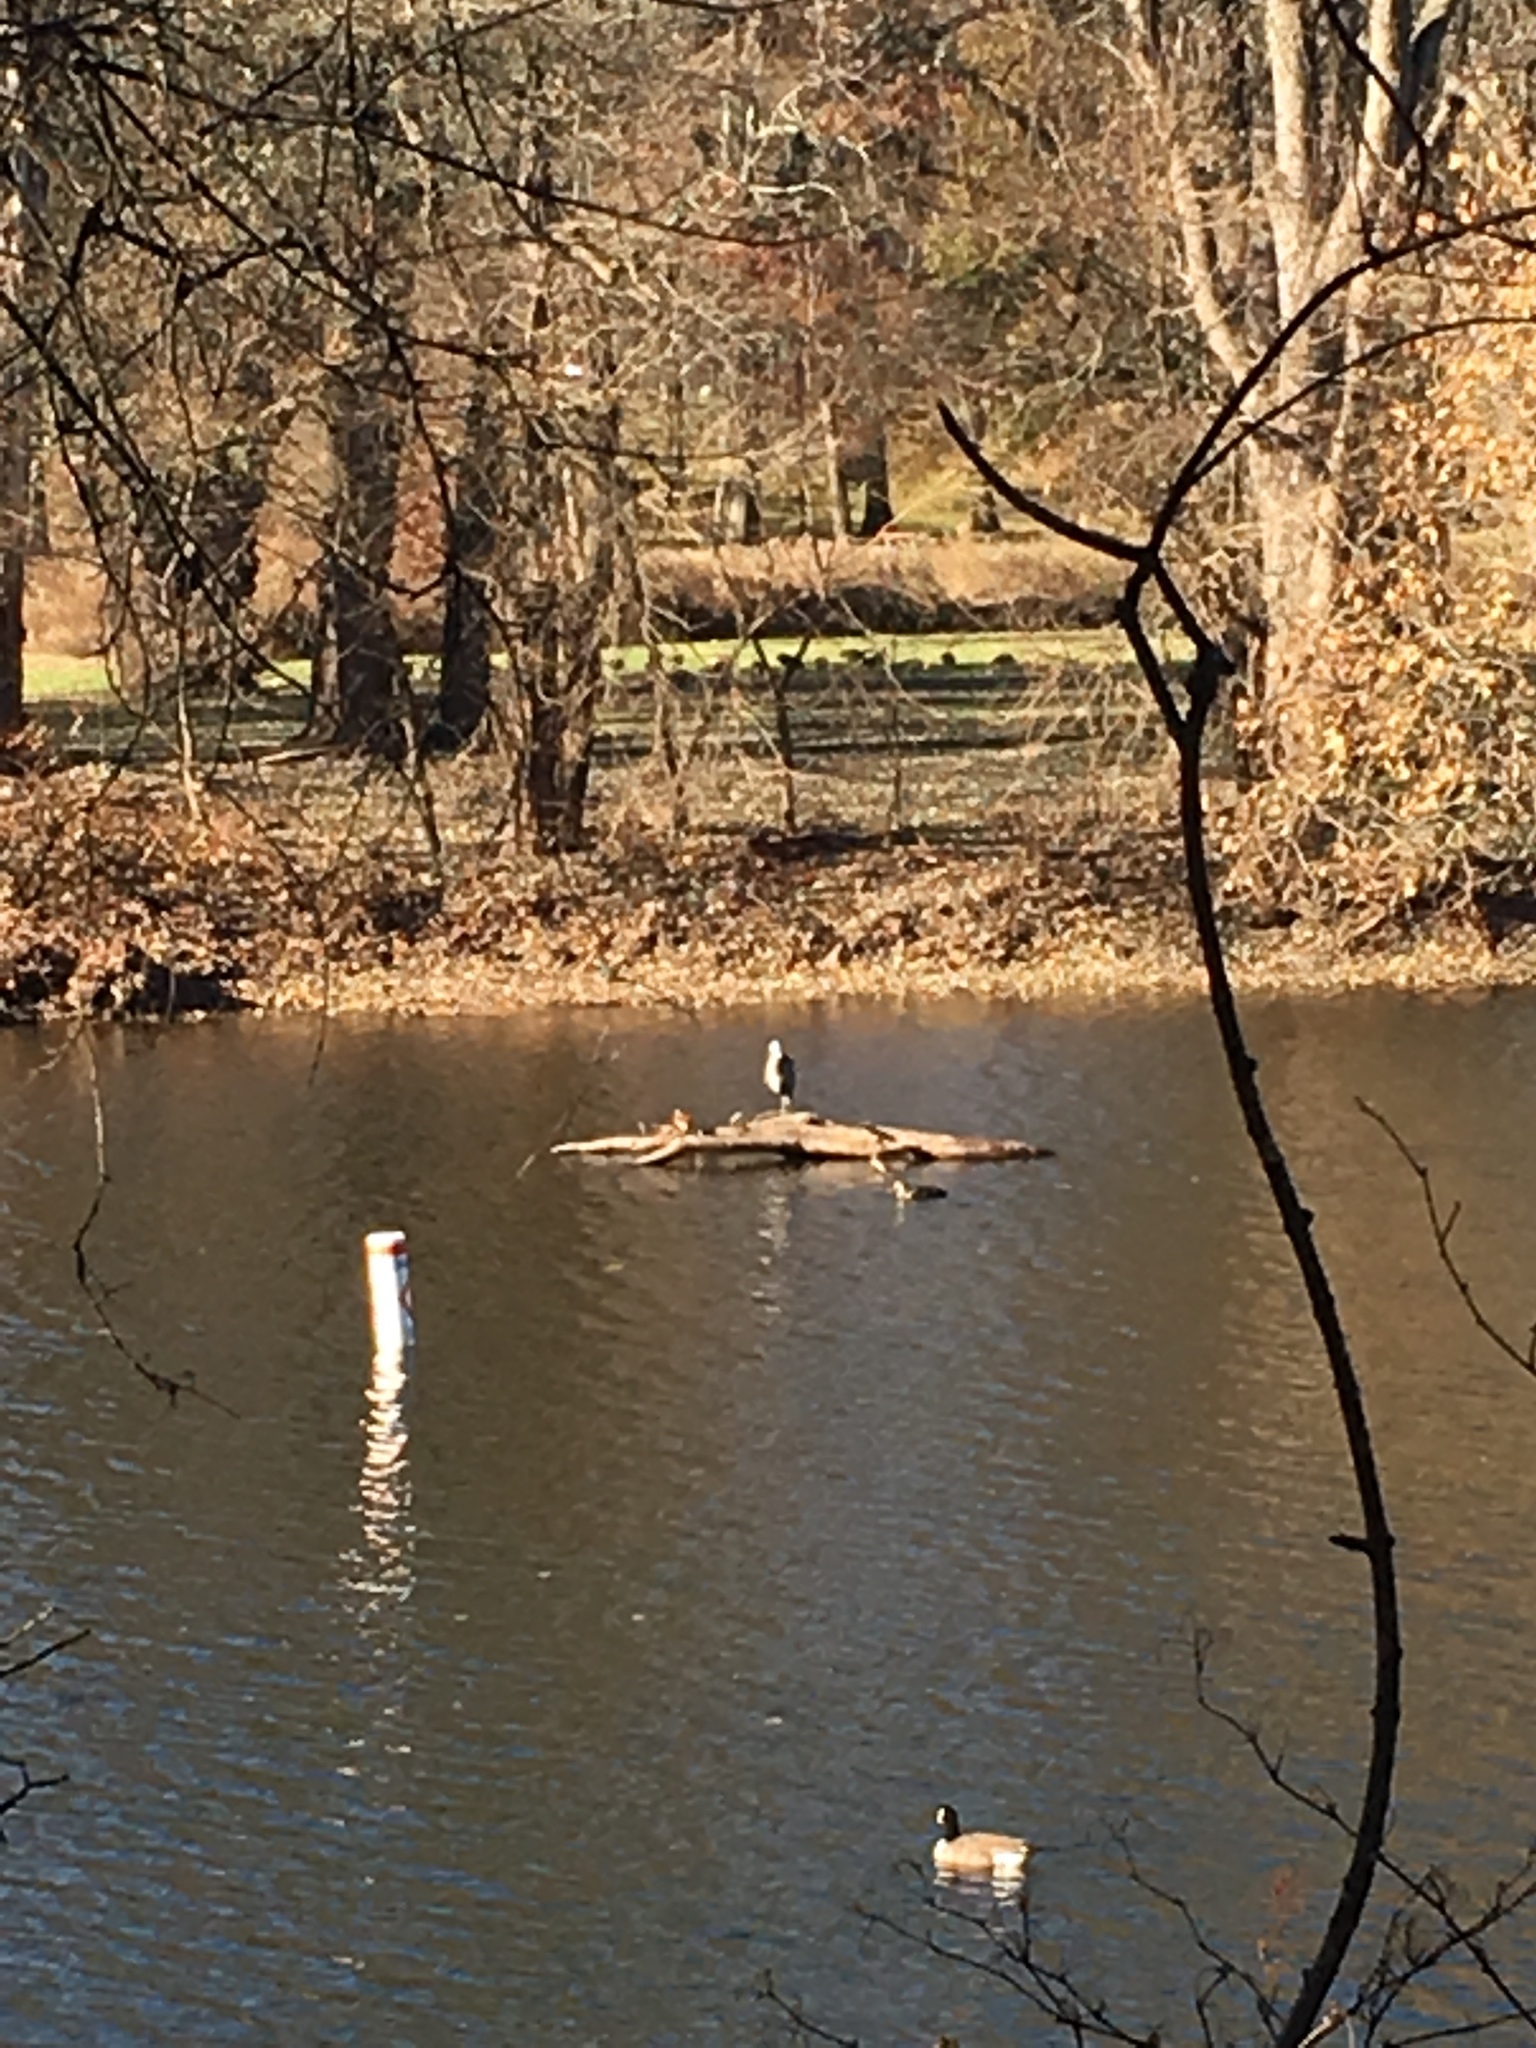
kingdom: Animalia
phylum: Chordata
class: Aves
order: Anseriformes
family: Anatidae
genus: Anas
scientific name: Anas platyrhynchos
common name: Mallard
